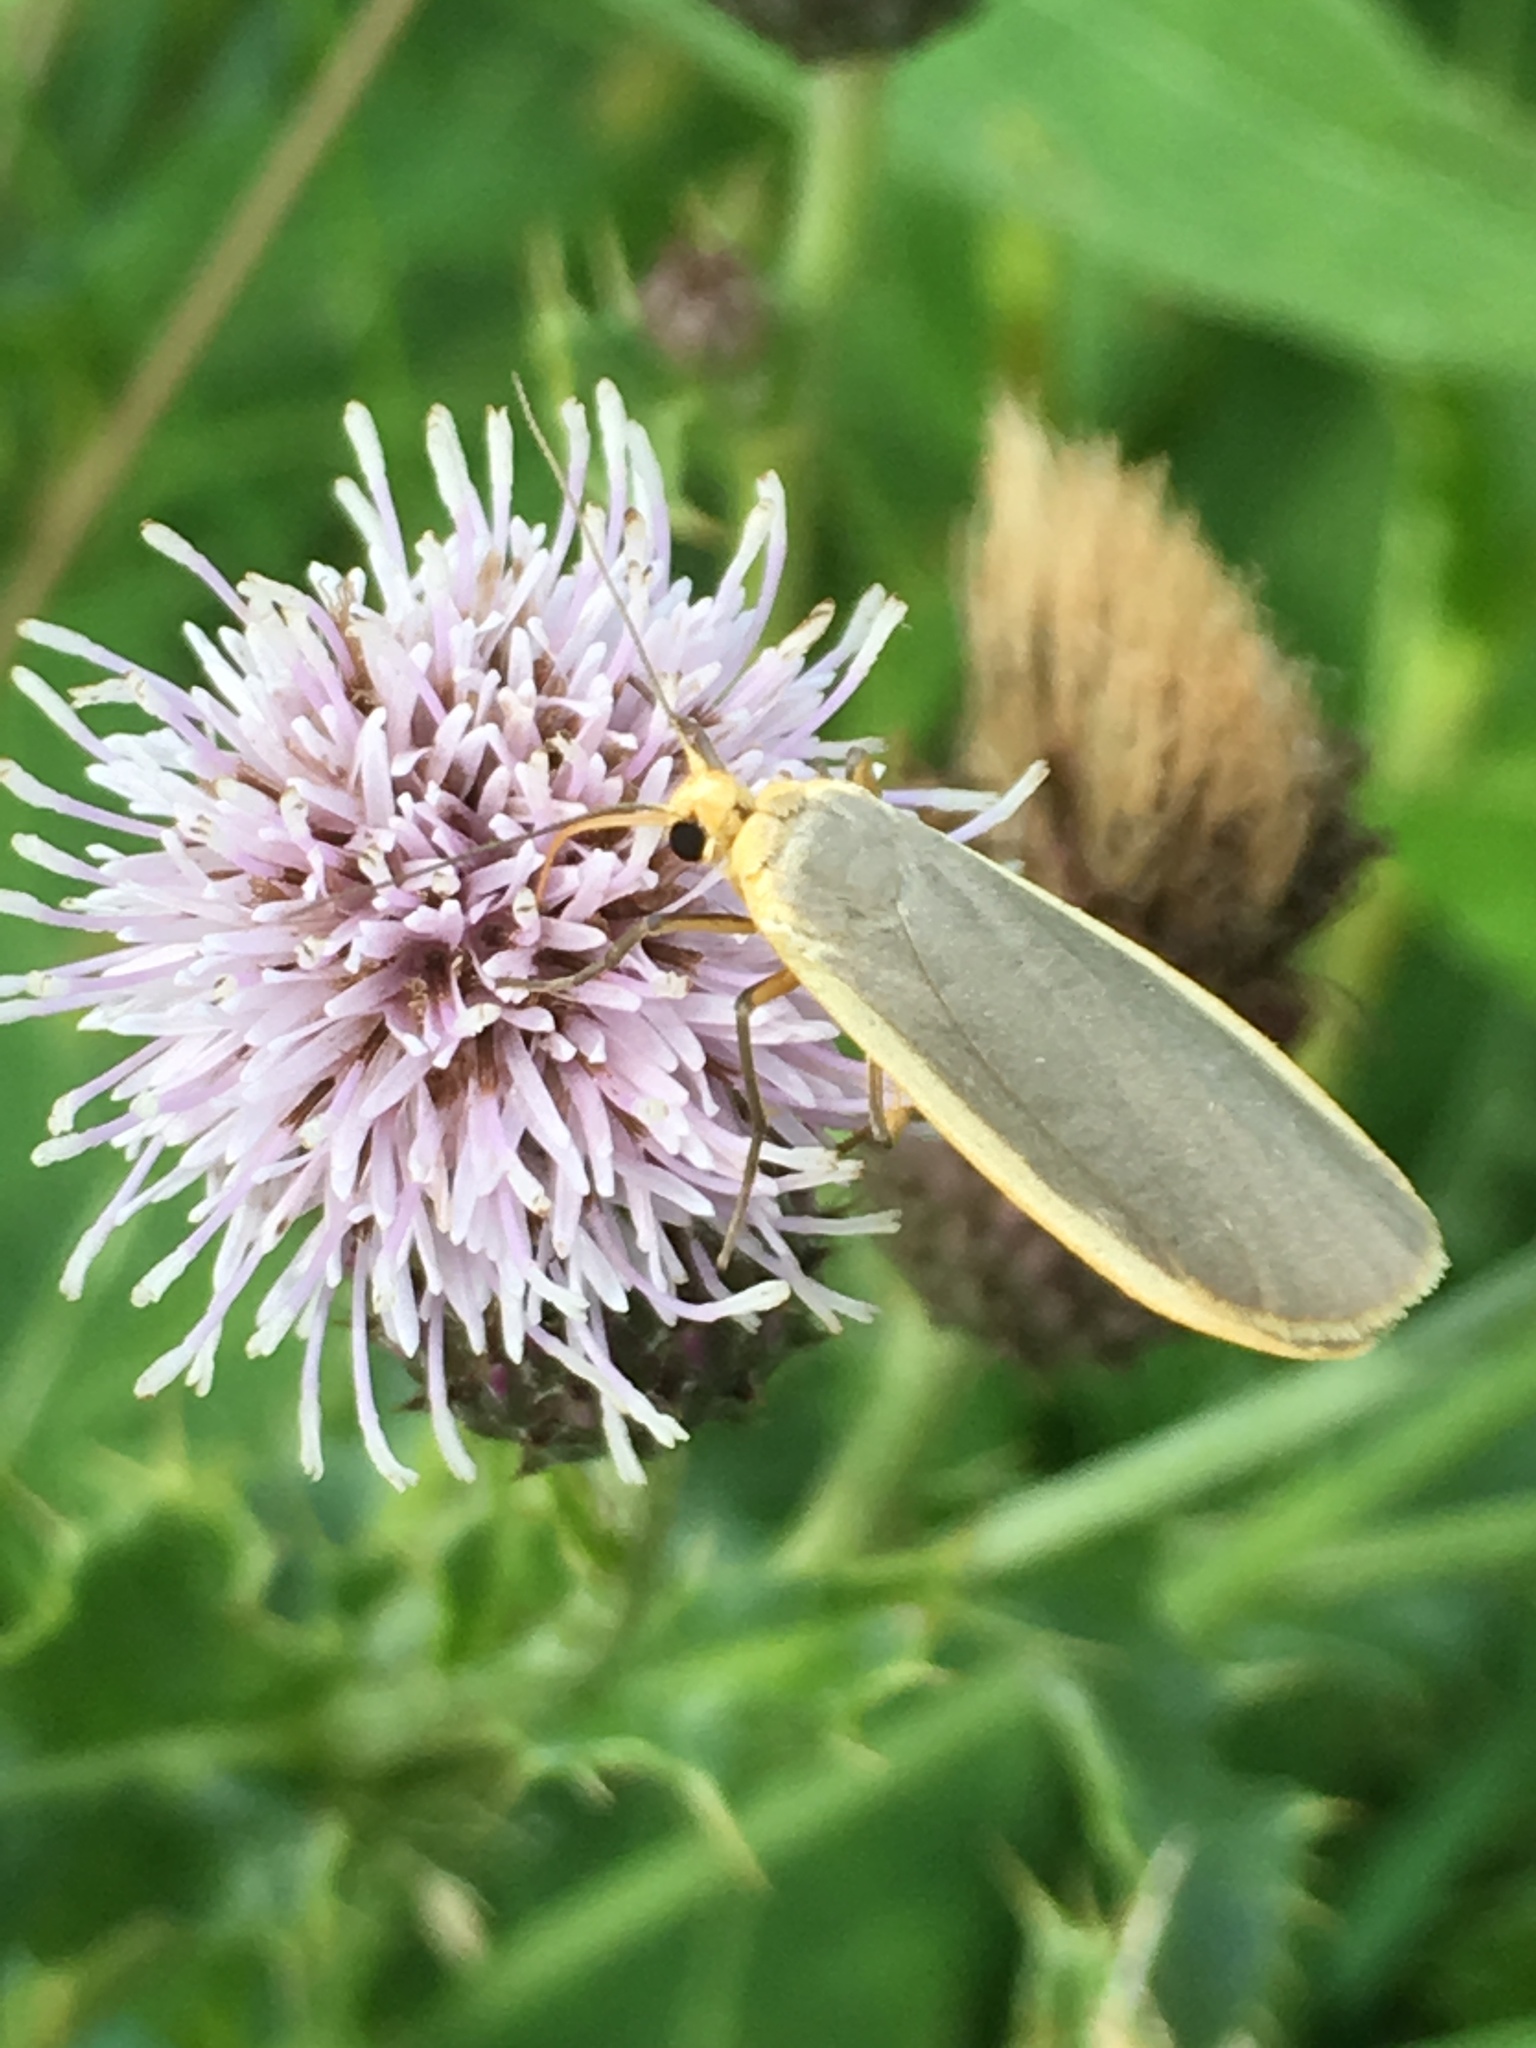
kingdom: Animalia
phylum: Arthropoda
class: Insecta
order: Lepidoptera
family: Erebidae
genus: Nyea
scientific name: Nyea lurideola
